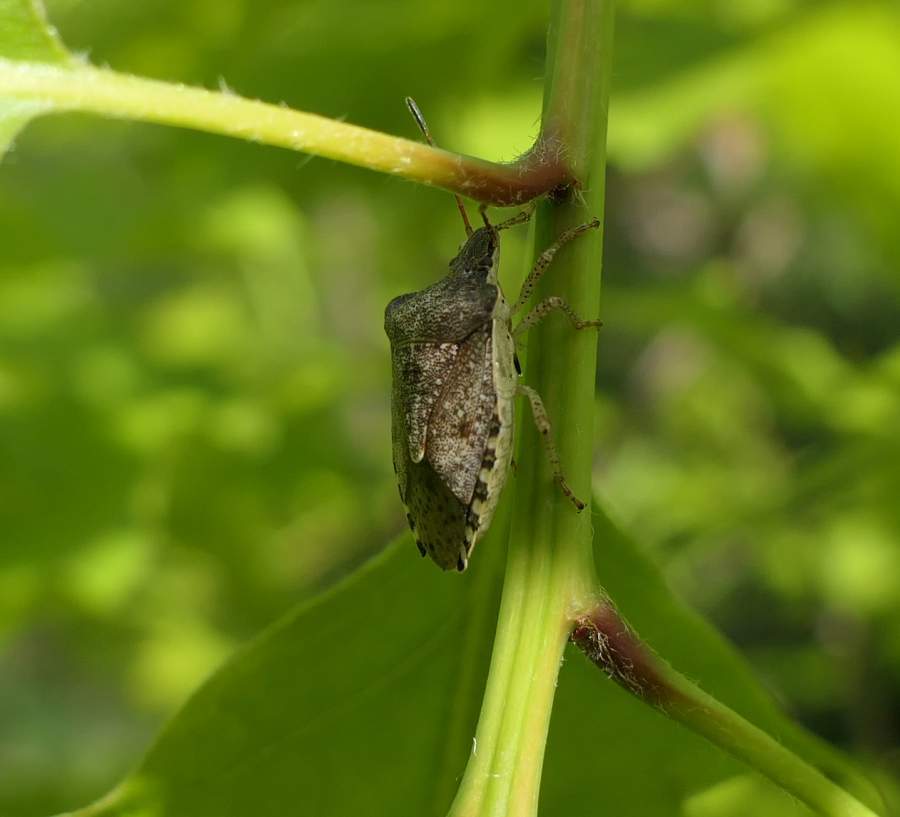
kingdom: Animalia
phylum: Arthropoda
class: Insecta
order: Hemiptera
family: Pentatomidae
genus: Euschistus
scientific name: Euschistus tristigmus
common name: Dusky stink bug
